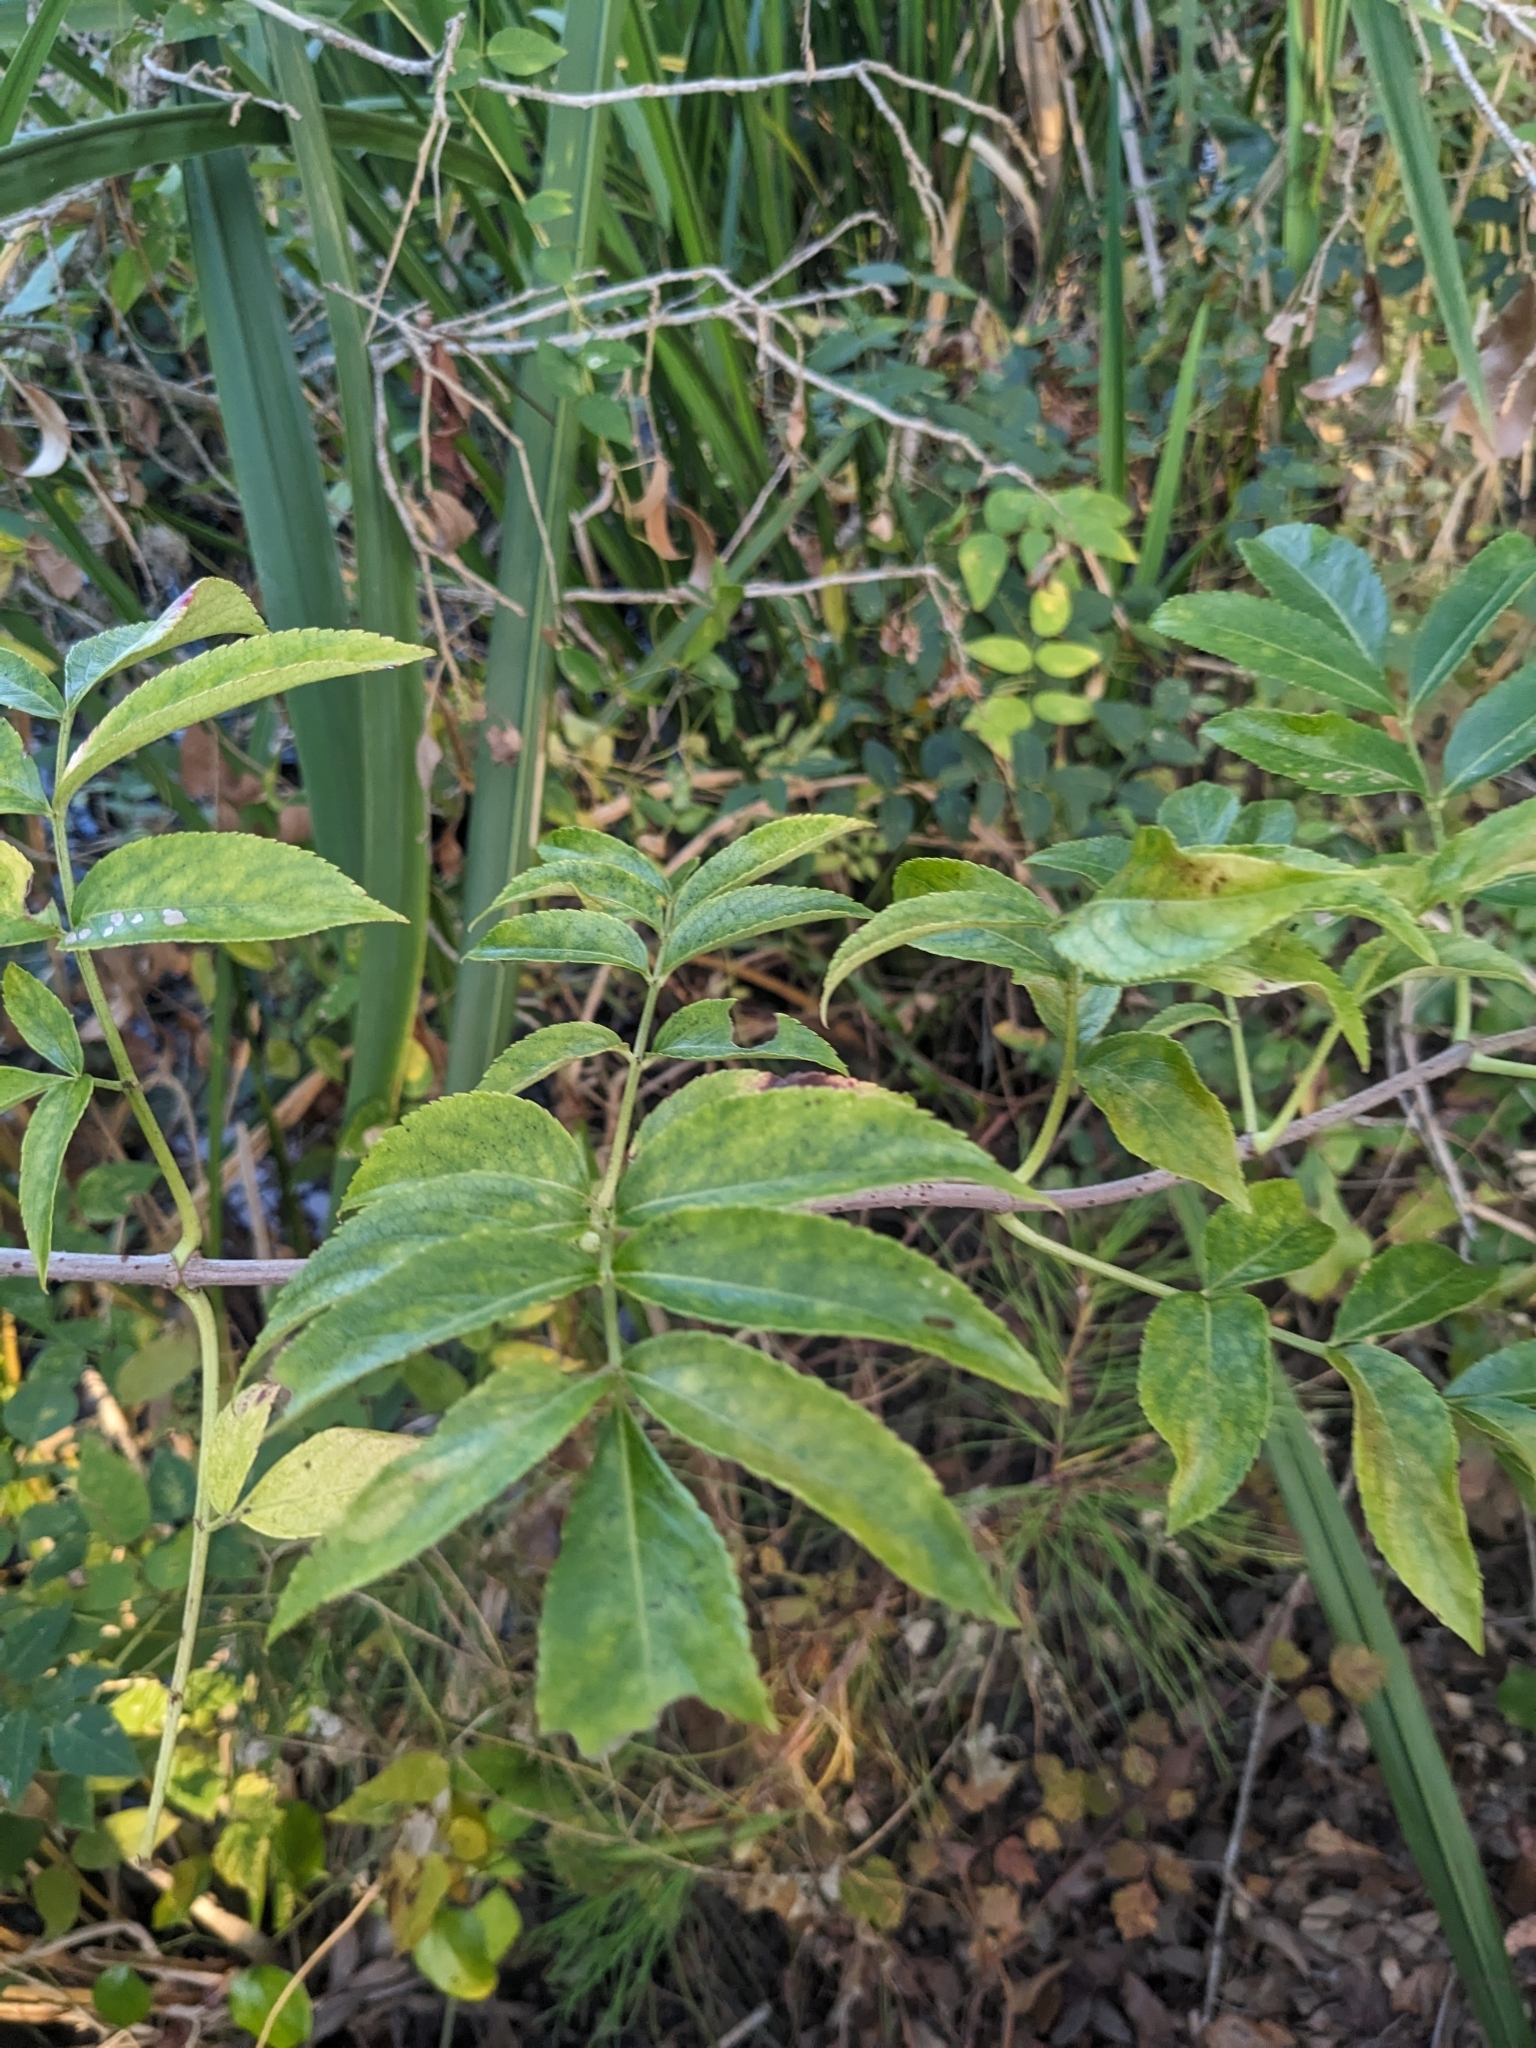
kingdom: Plantae
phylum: Tracheophyta
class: Magnoliopsida
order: Dipsacales
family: Viburnaceae
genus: Sambucus
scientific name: Sambucus canadensis
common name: American elder
